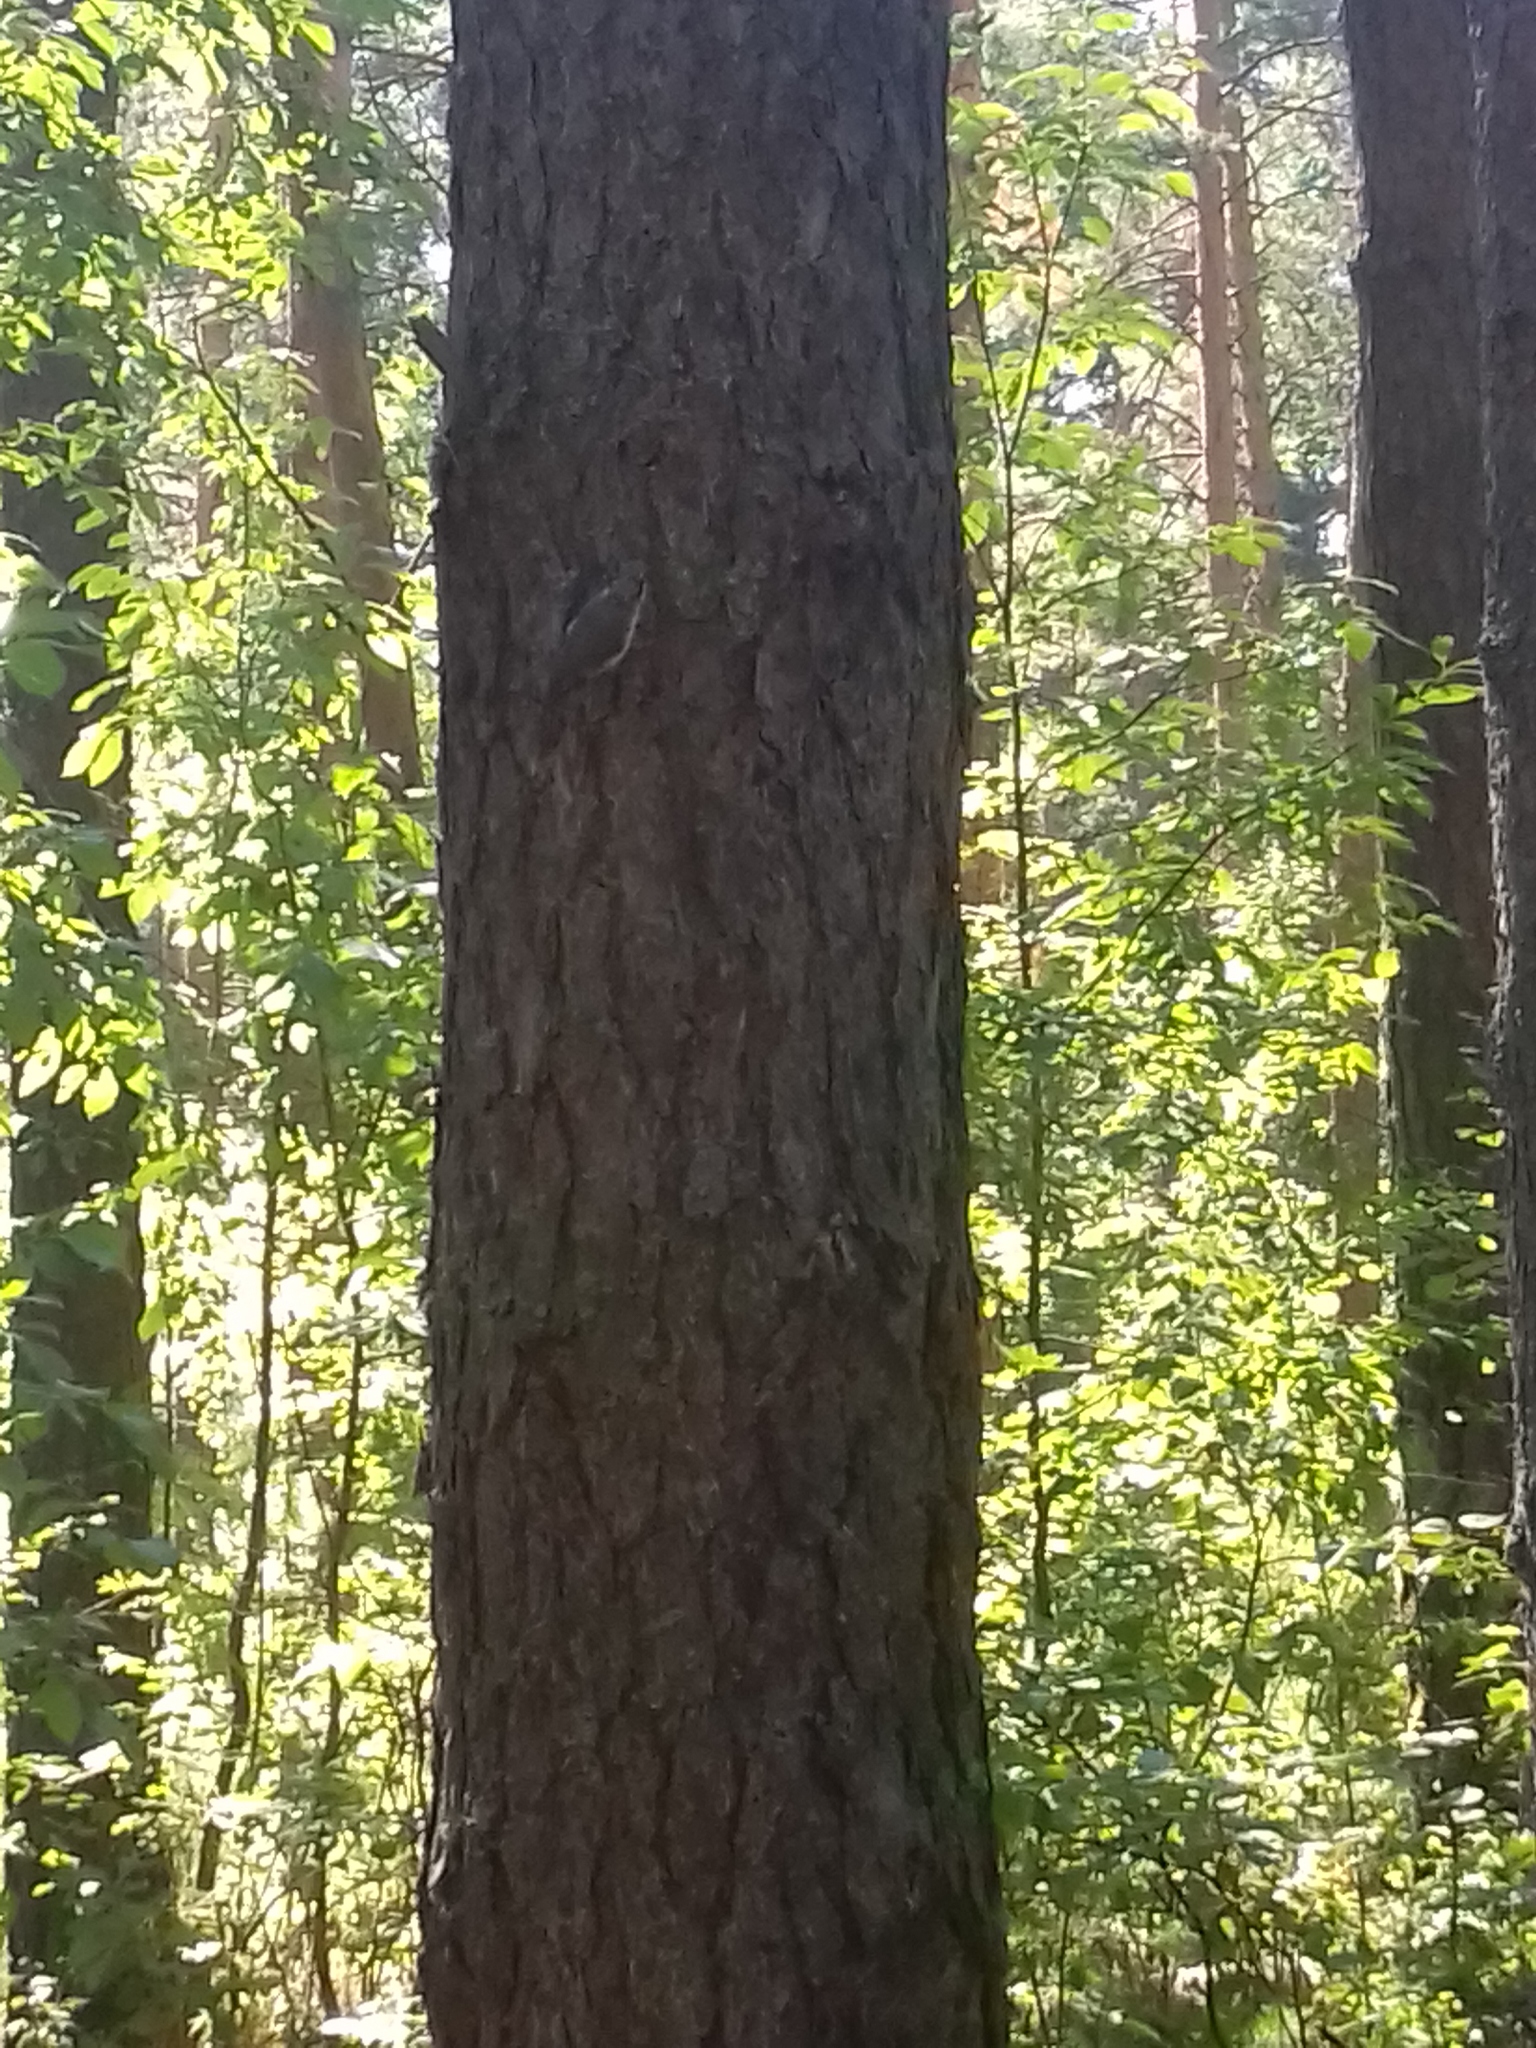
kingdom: Animalia
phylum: Chordata
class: Aves
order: Passeriformes
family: Sittidae
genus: Sitta
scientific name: Sitta europaea
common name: Eurasian nuthatch
